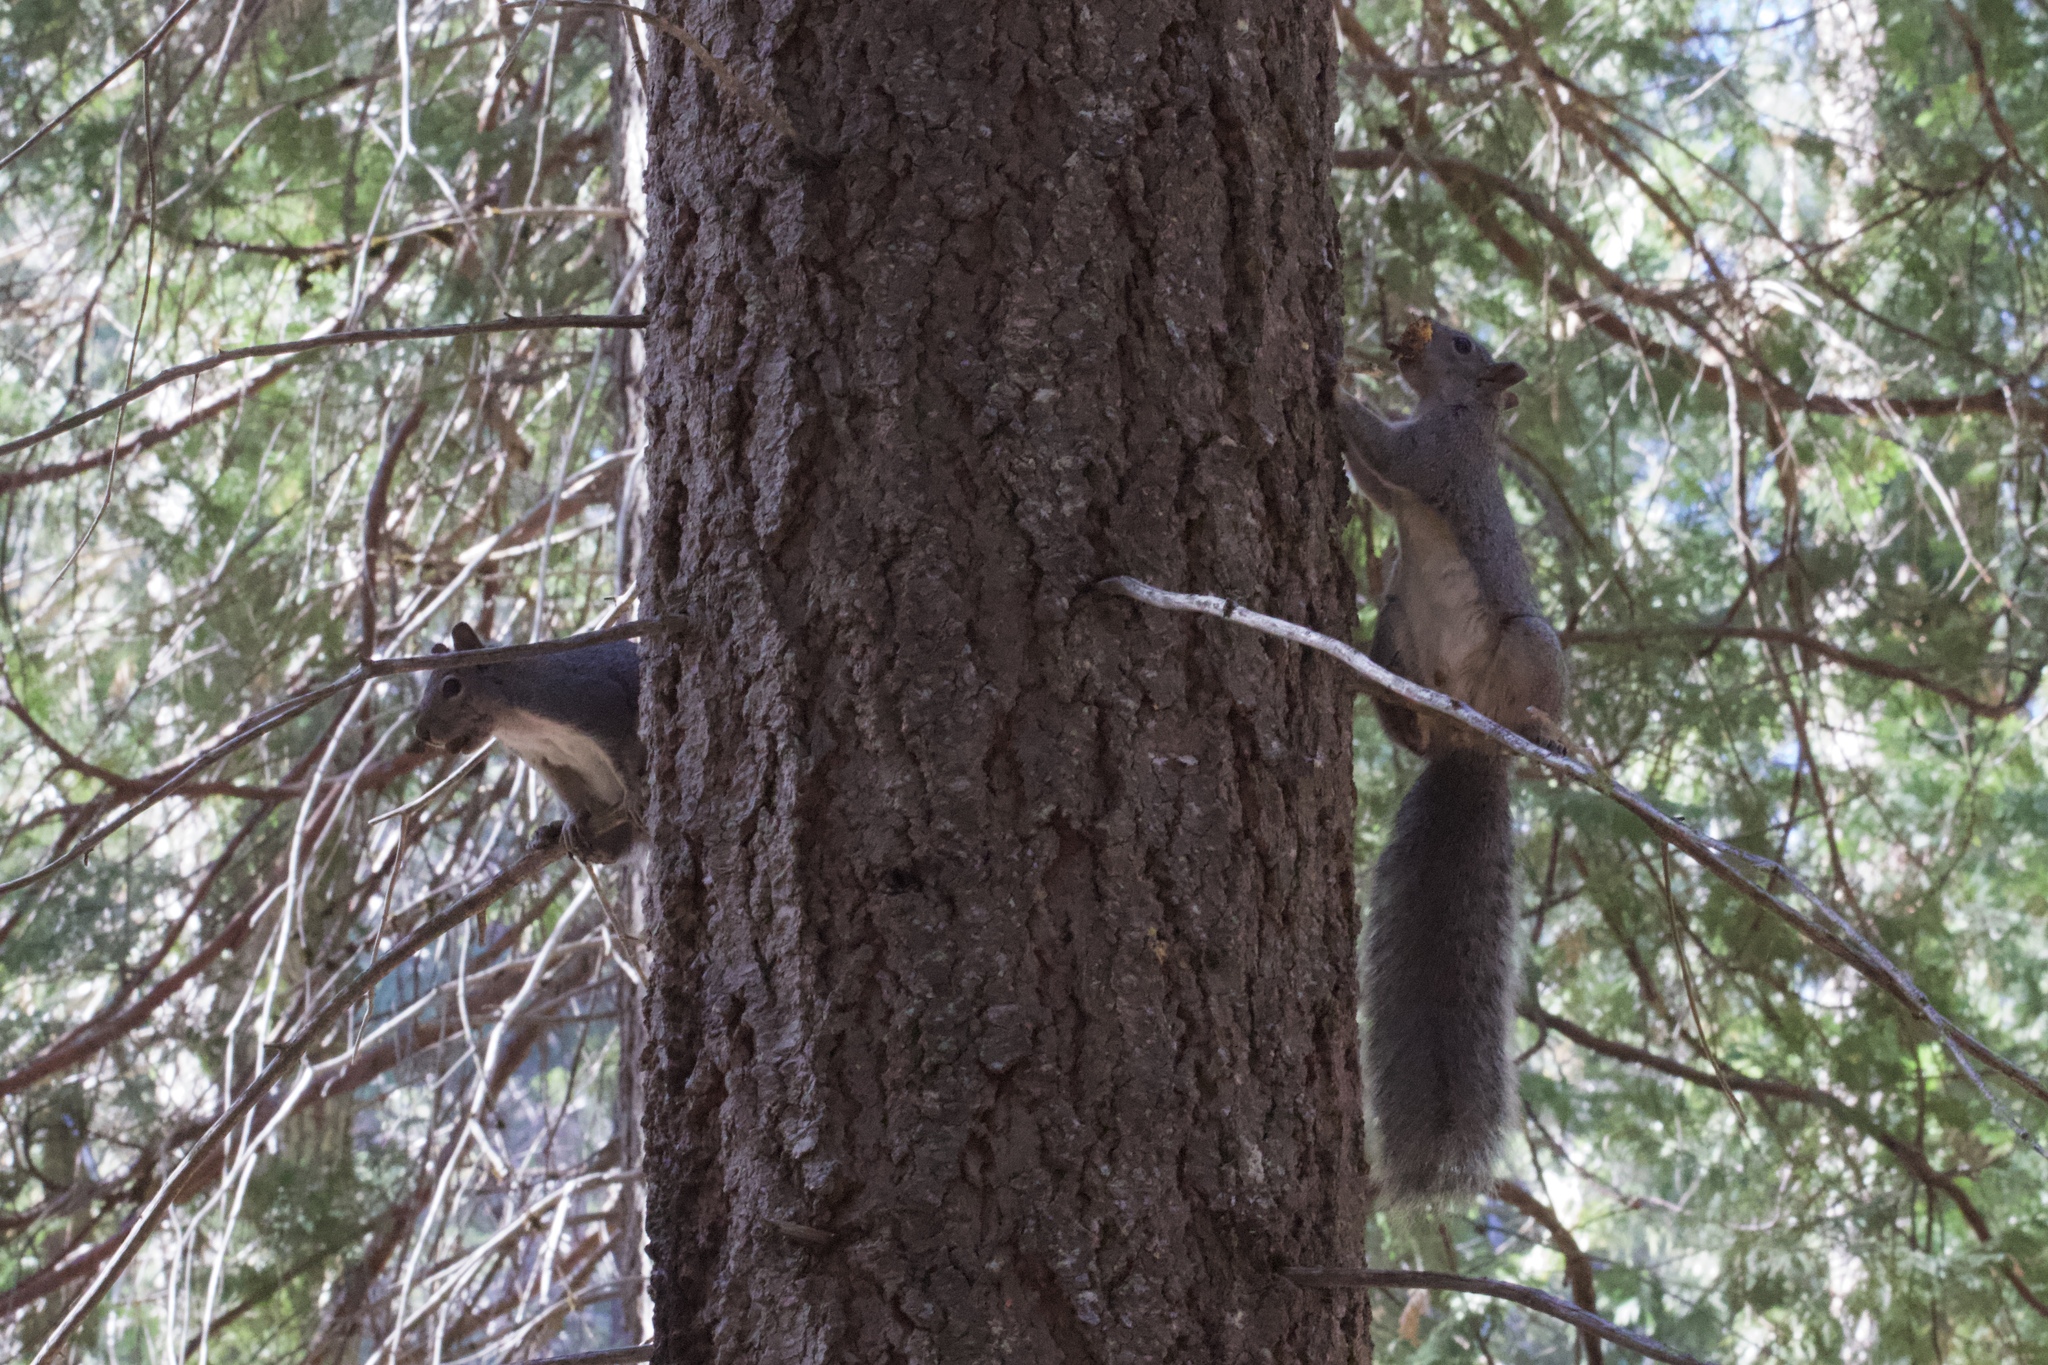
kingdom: Animalia
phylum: Chordata
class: Mammalia
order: Rodentia
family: Sciuridae
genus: Sciurus
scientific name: Sciurus griseus
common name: Western gray squirrel
